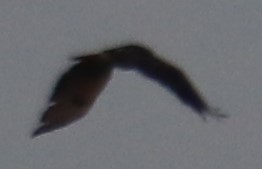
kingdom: Animalia
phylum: Chordata
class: Aves
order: Accipitriformes
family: Accipitridae
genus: Buteo
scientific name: Buteo jamaicensis
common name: Red-tailed hawk
